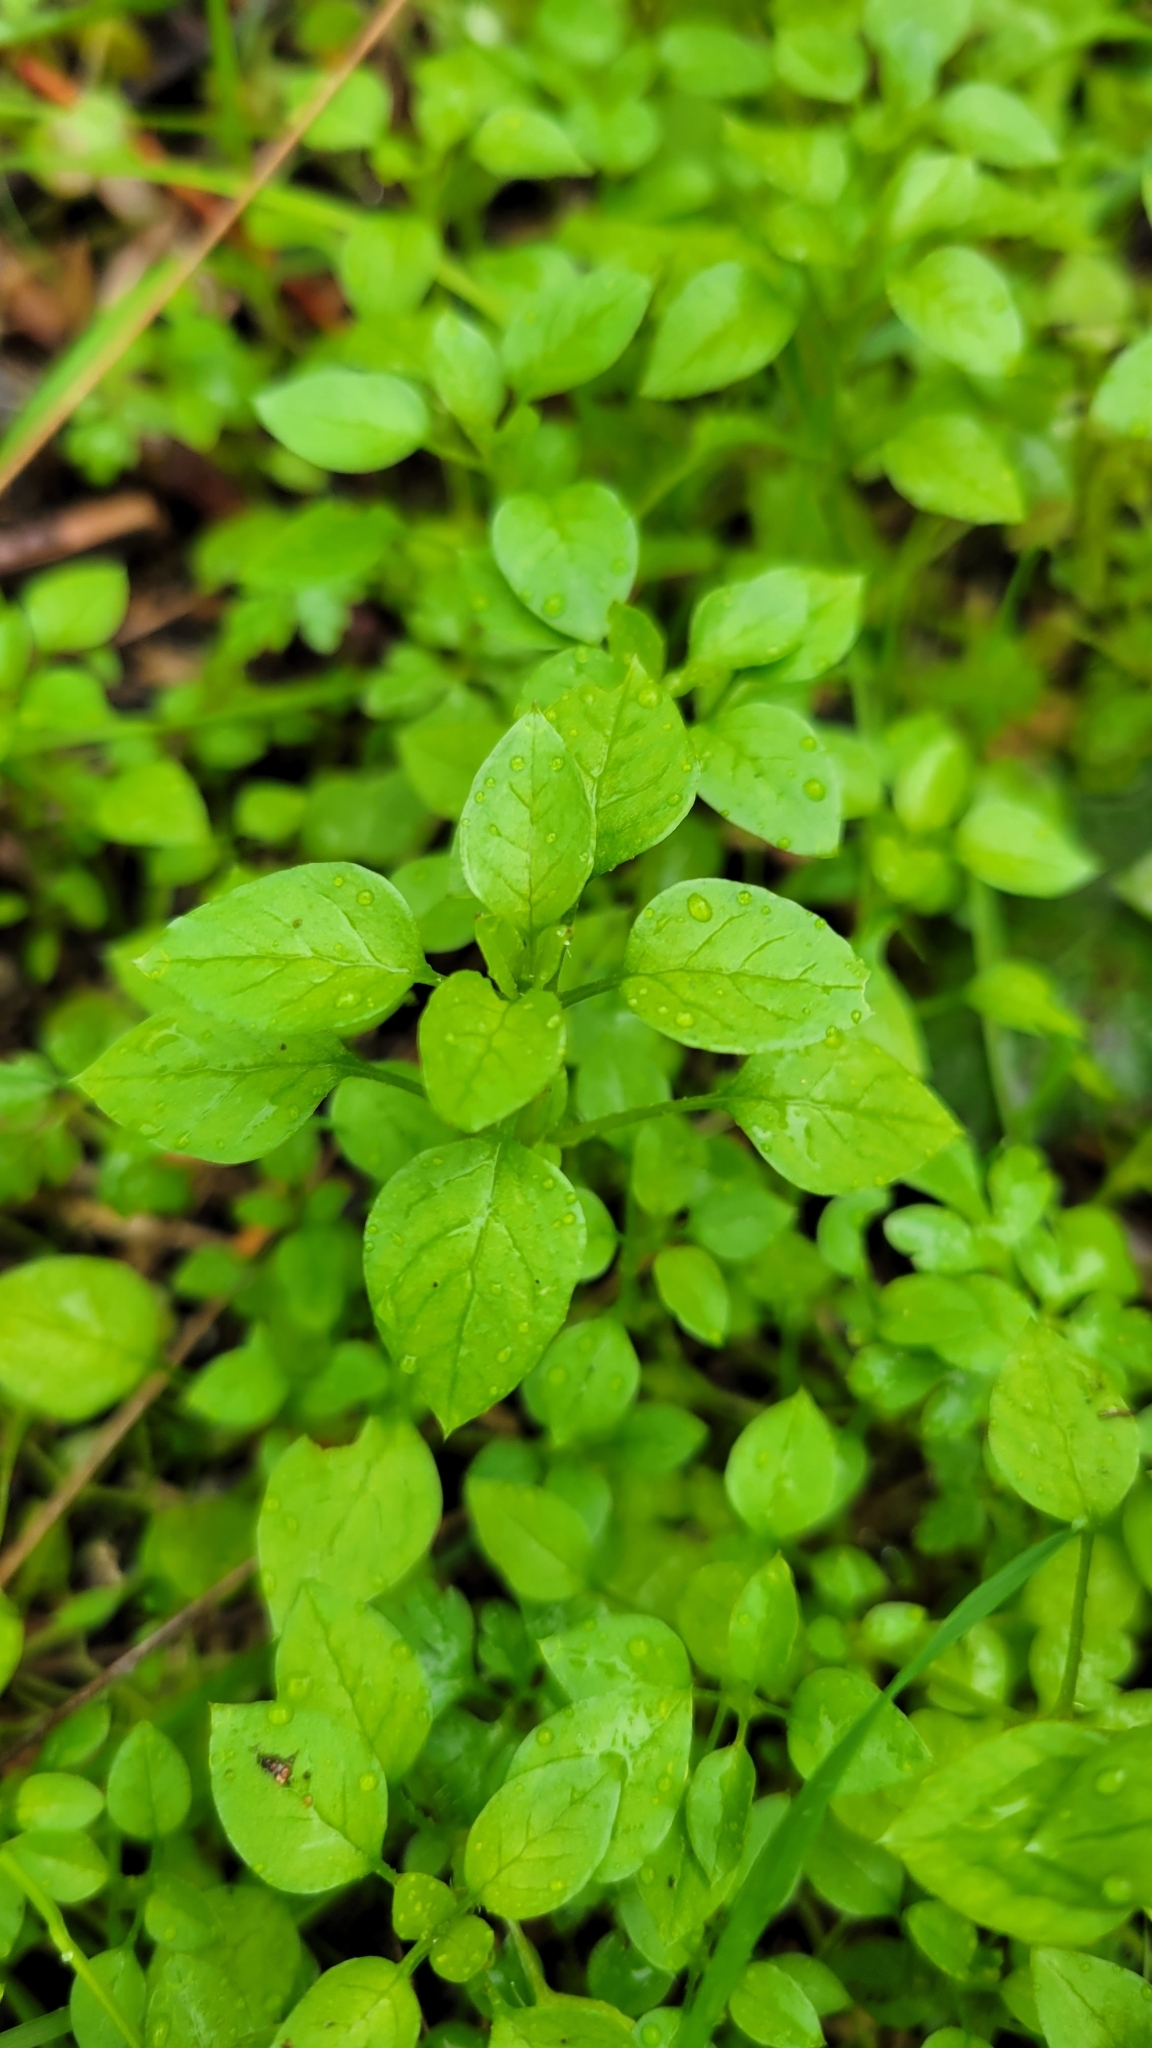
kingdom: Plantae
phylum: Tracheophyta
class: Magnoliopsida
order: Caryophyllales
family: Caryophyllaceae
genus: Stellaria
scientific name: Stellaria media
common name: Common chickweed
